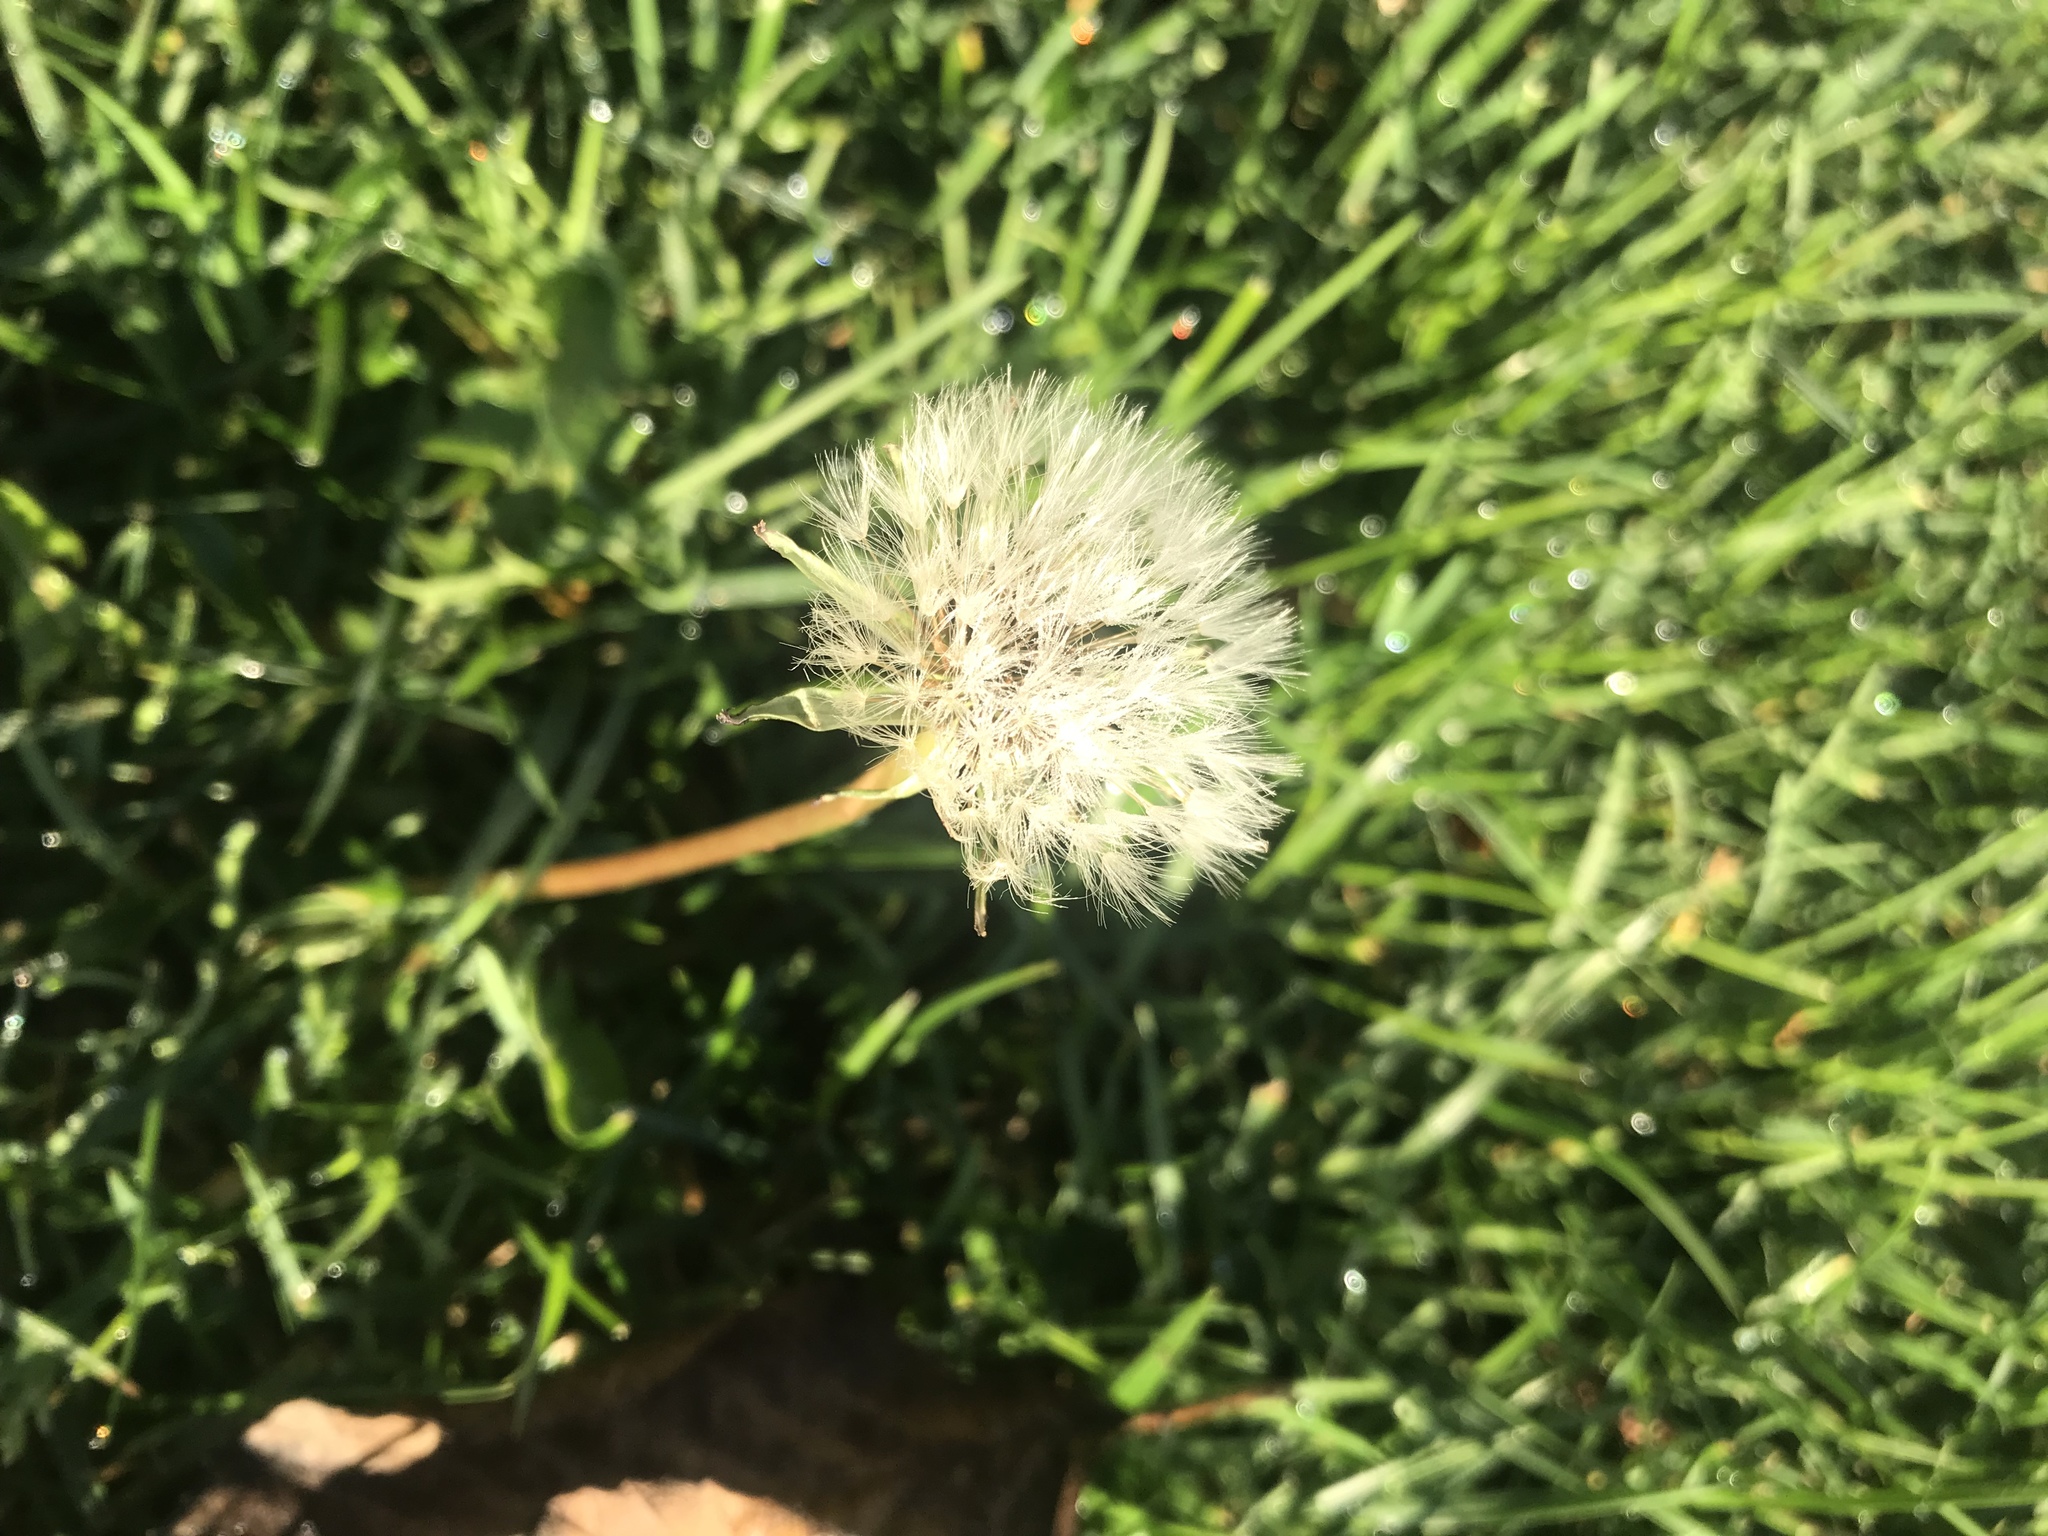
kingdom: Plantae
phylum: Tracheophyta
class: Magnoliopsida
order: Asterales
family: Asteraceae
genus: Taraxacum
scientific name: Taraxacum officinale
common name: Common dandelion
